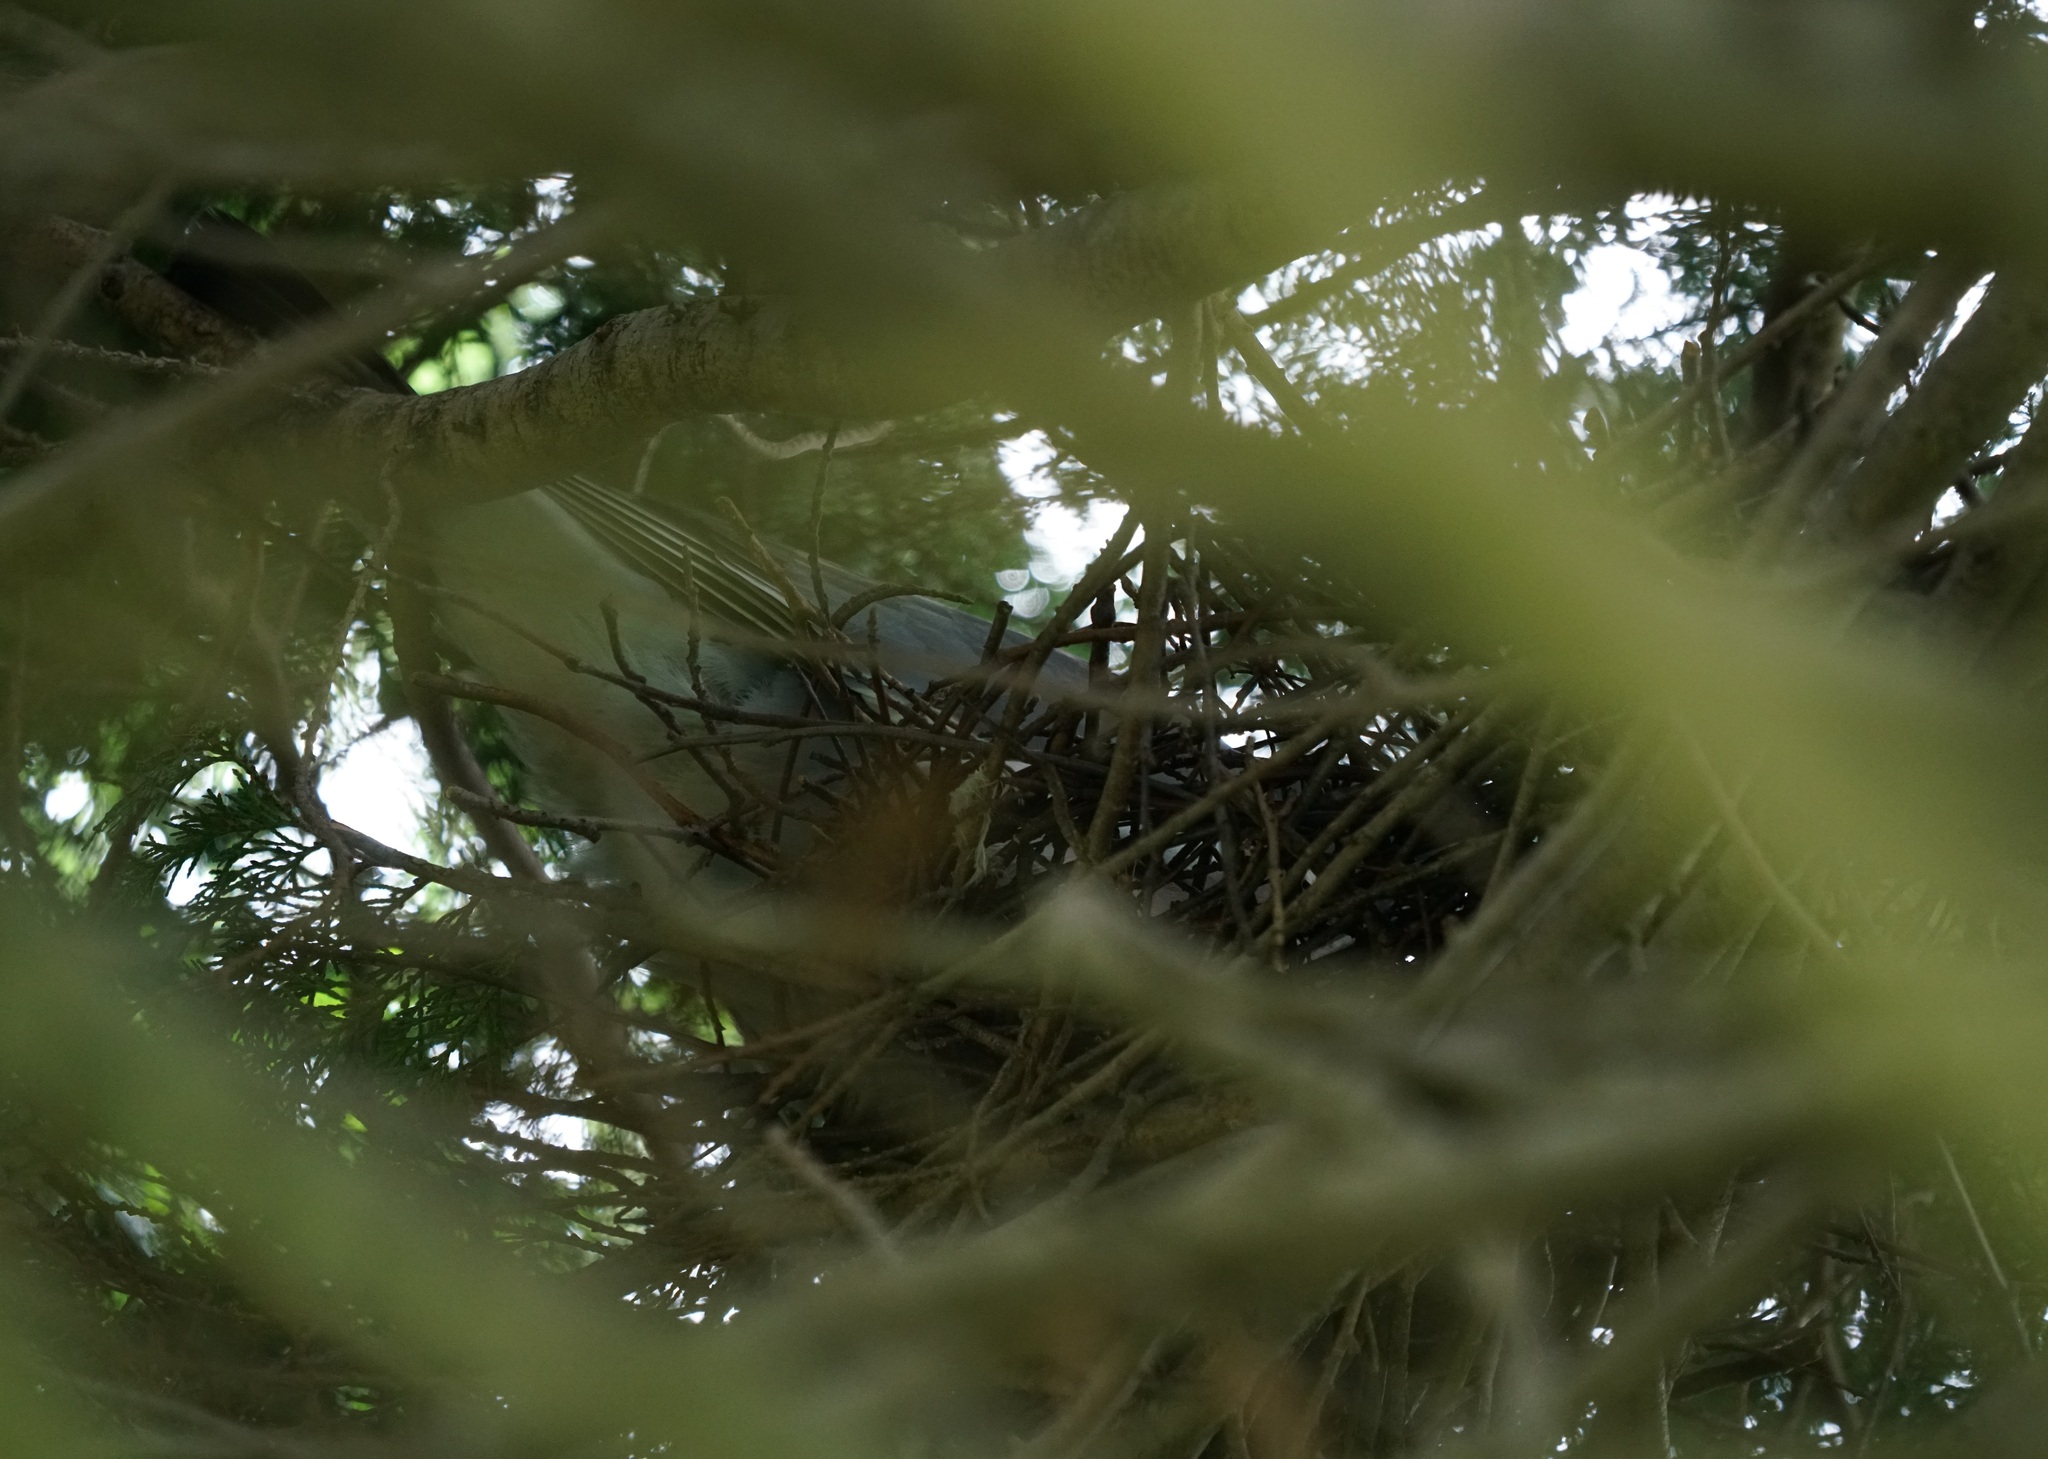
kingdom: Animalia
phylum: Chordata
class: Aves
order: Columbiformes
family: Columbidae
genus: Columba
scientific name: Columba palumbus
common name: Common wood pigeon
